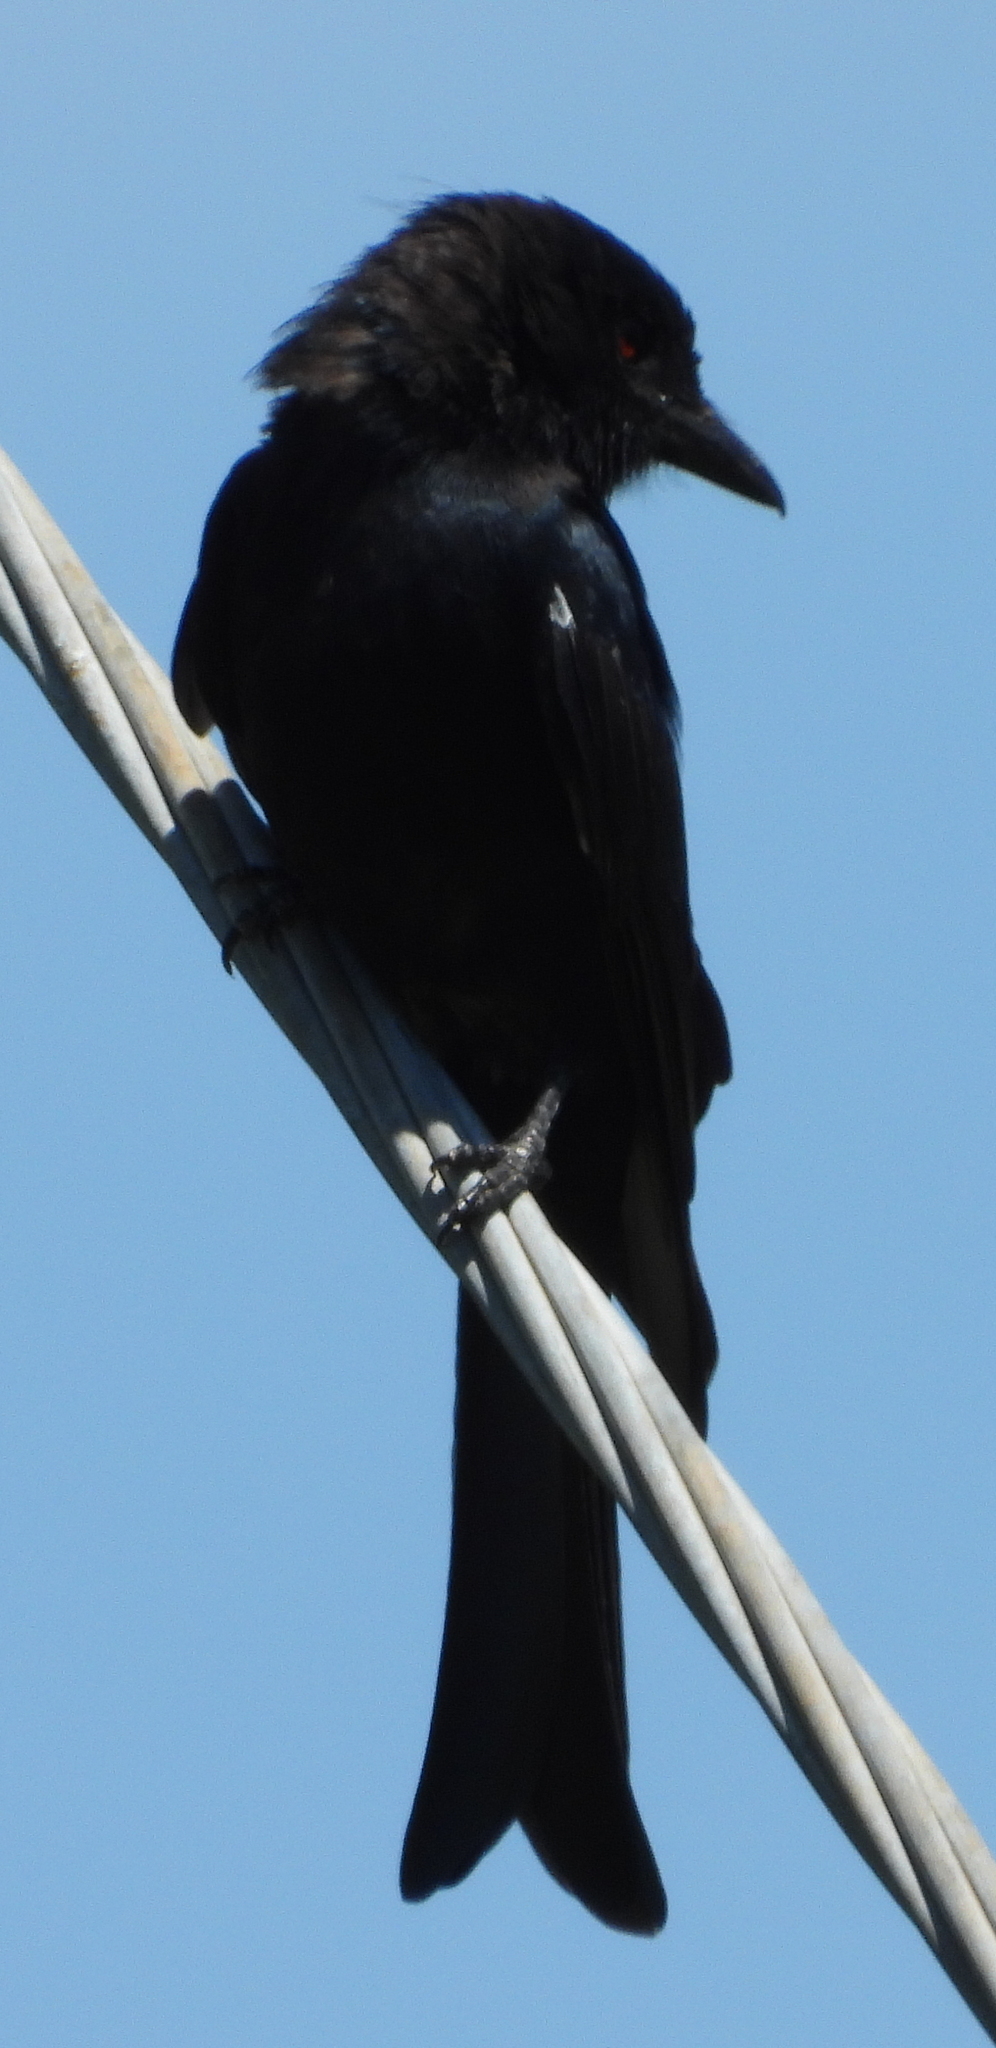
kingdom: Animalia
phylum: Chordata
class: Aves
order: Passeriformes
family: Dicruridae
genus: Dicrurus
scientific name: Dicrurus adsimilis
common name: Fork-tailed drongo
